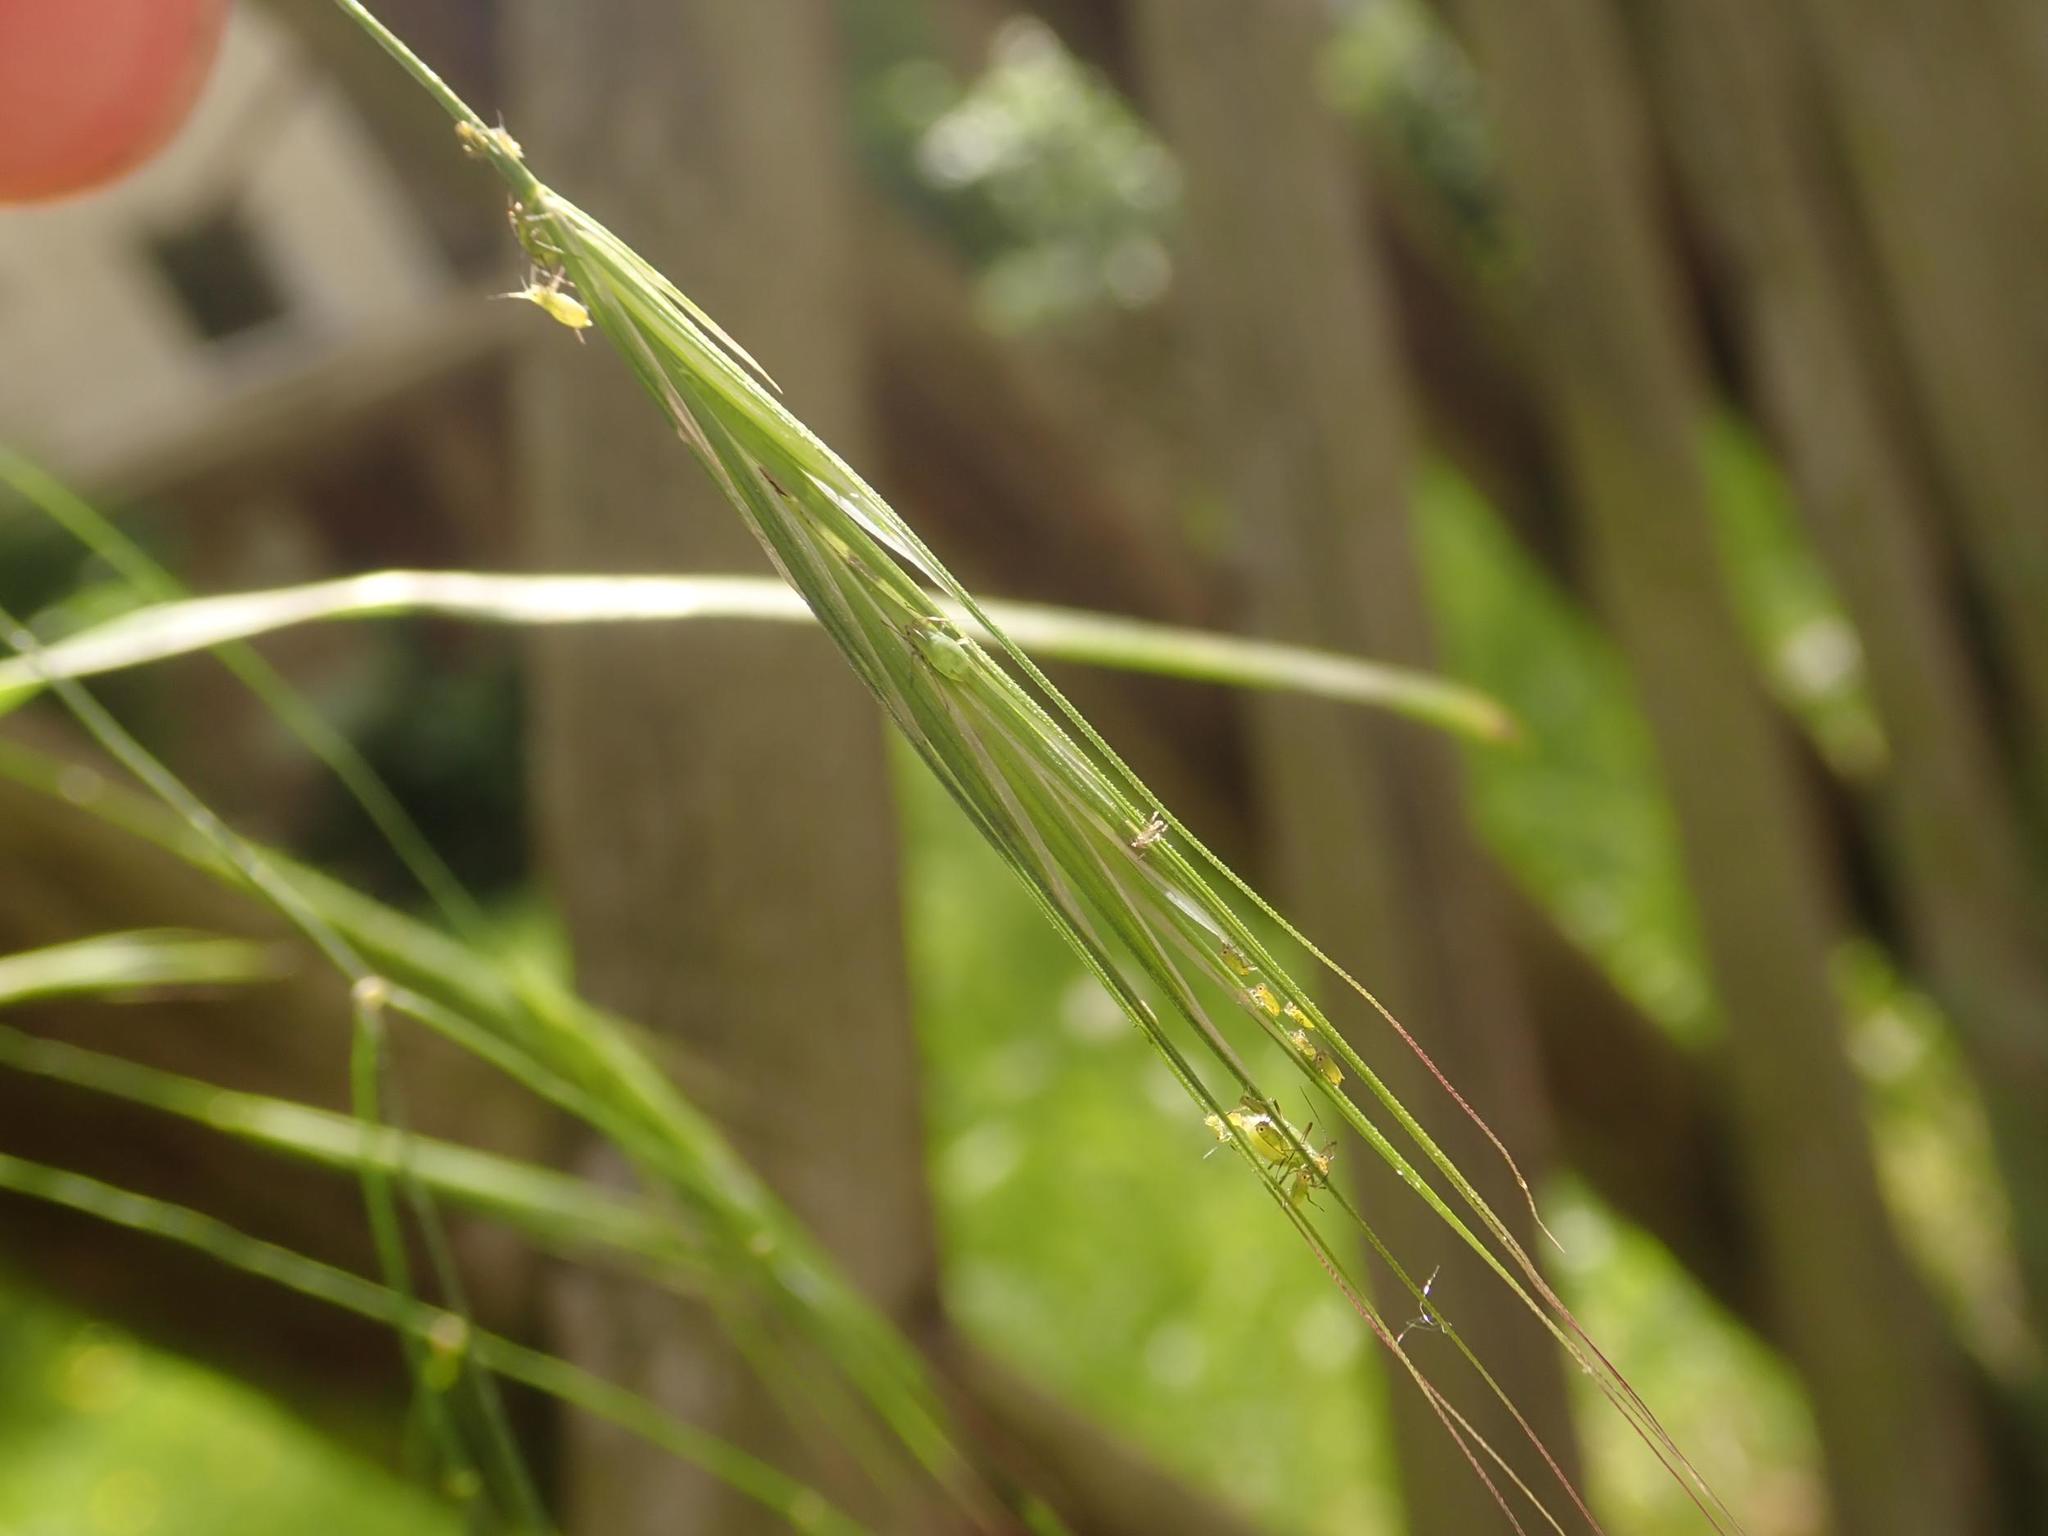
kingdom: Plantae
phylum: Tracheophyta
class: Liliopsida
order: Poales
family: Poaceae
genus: Bromus
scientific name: Bromus sterilis
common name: Poverty brome
